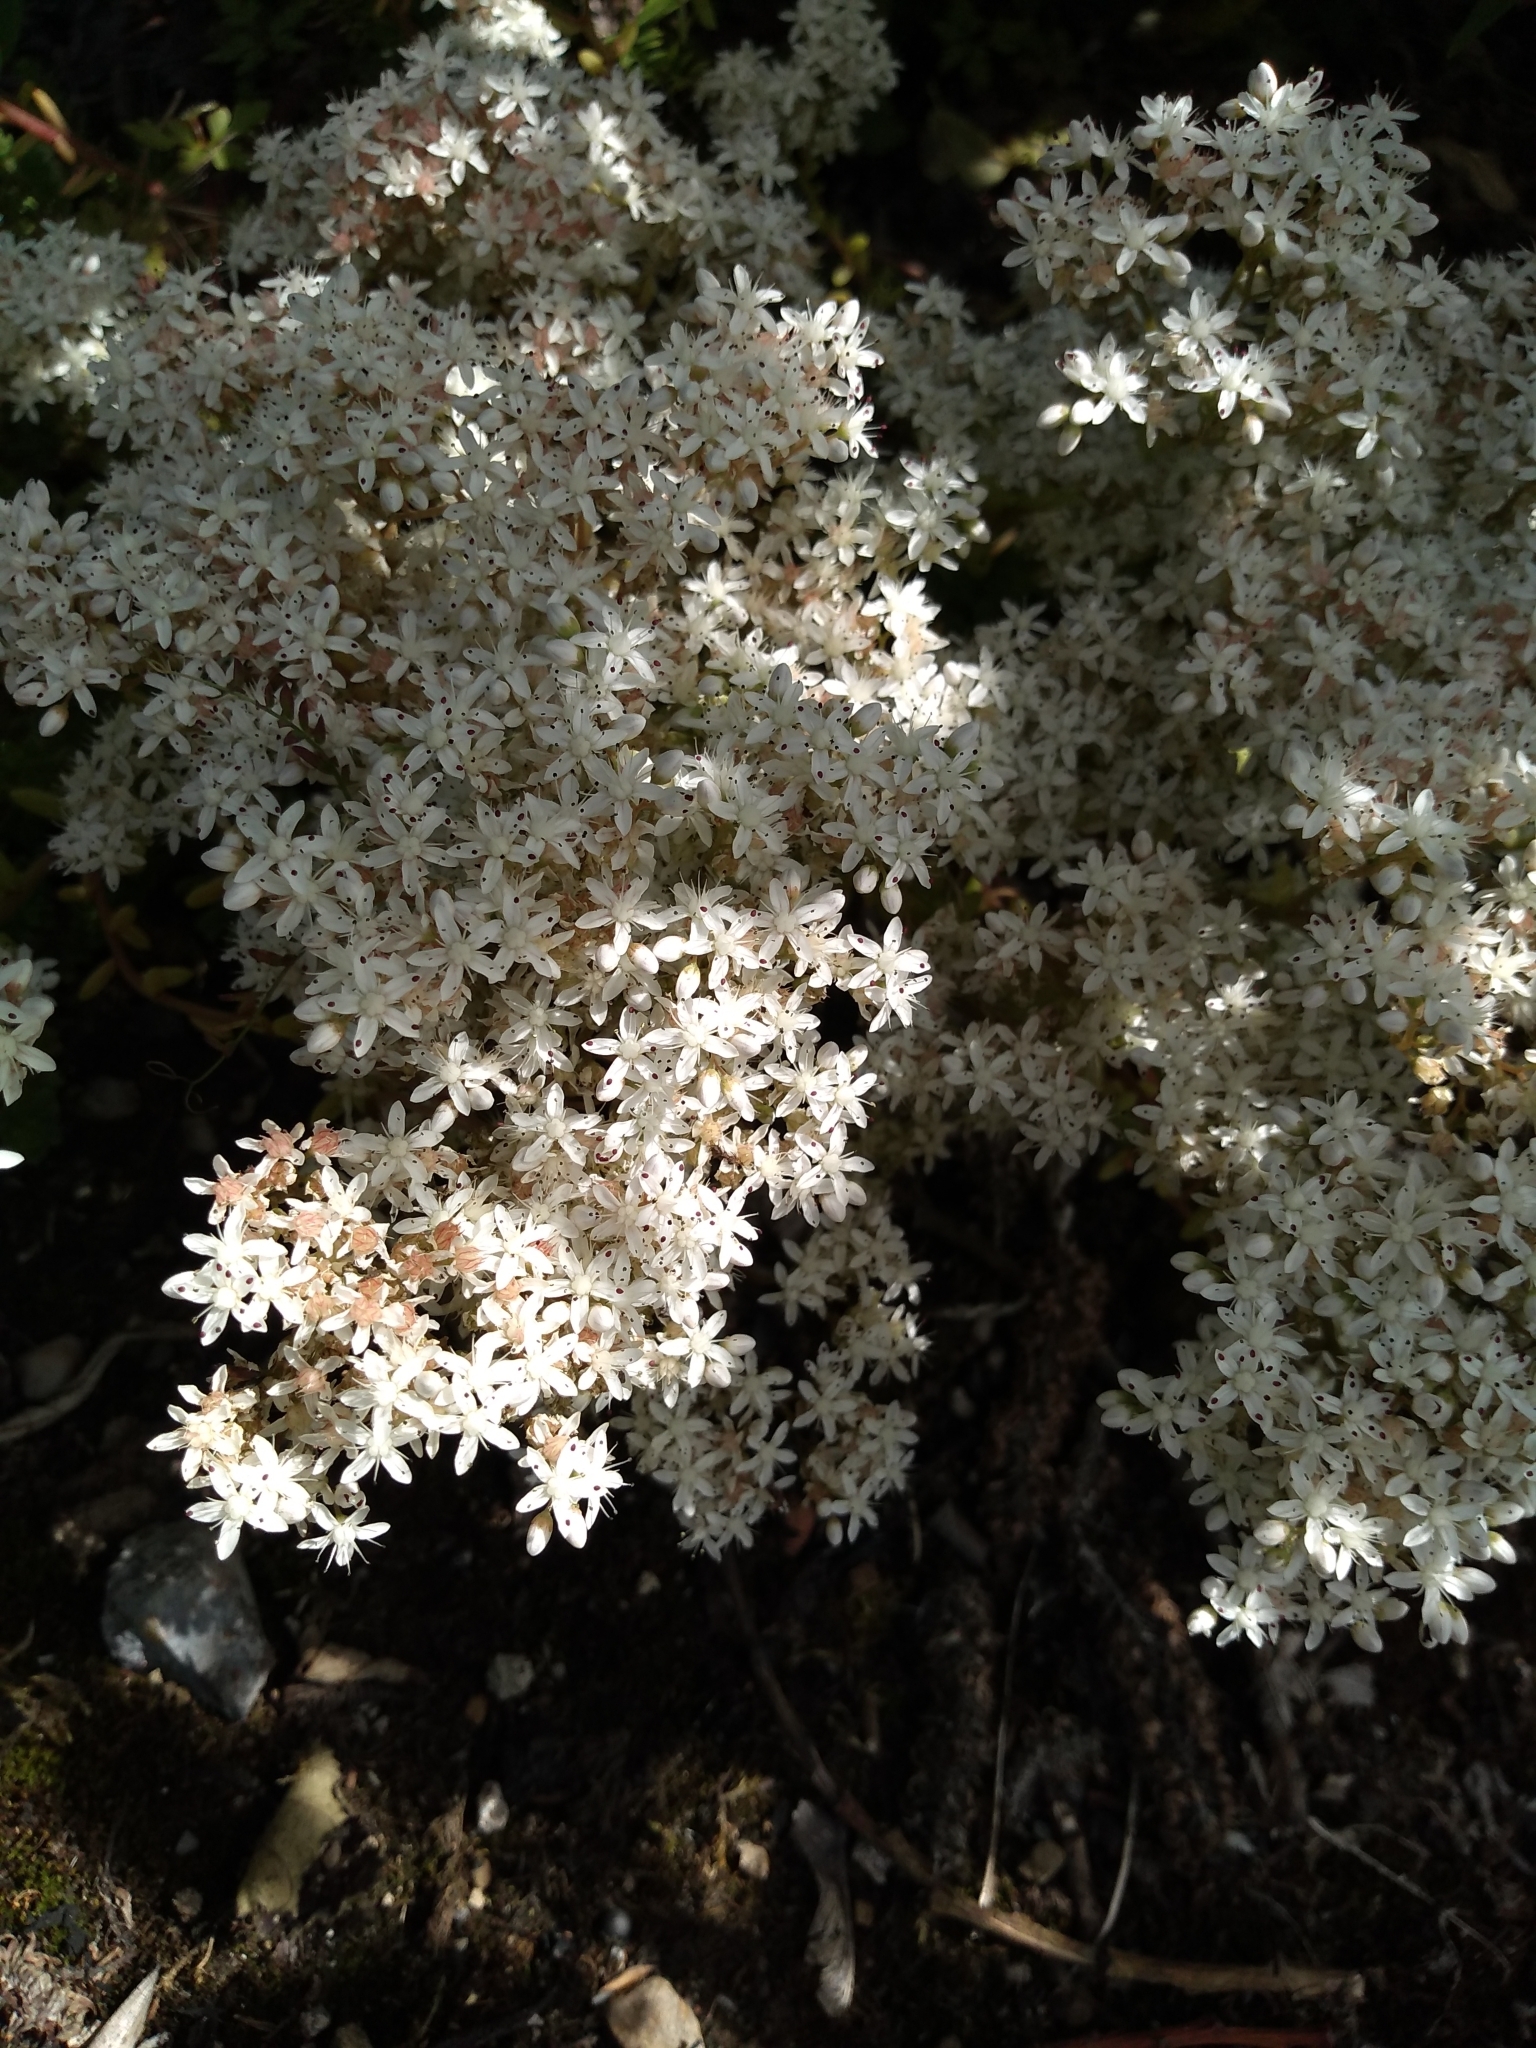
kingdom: Plantae
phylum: Tracheophyta
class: Magnoliopsida
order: Saxifragales
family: Crassulaceae
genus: Sedum
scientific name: Sedum album
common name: White stonecrop
